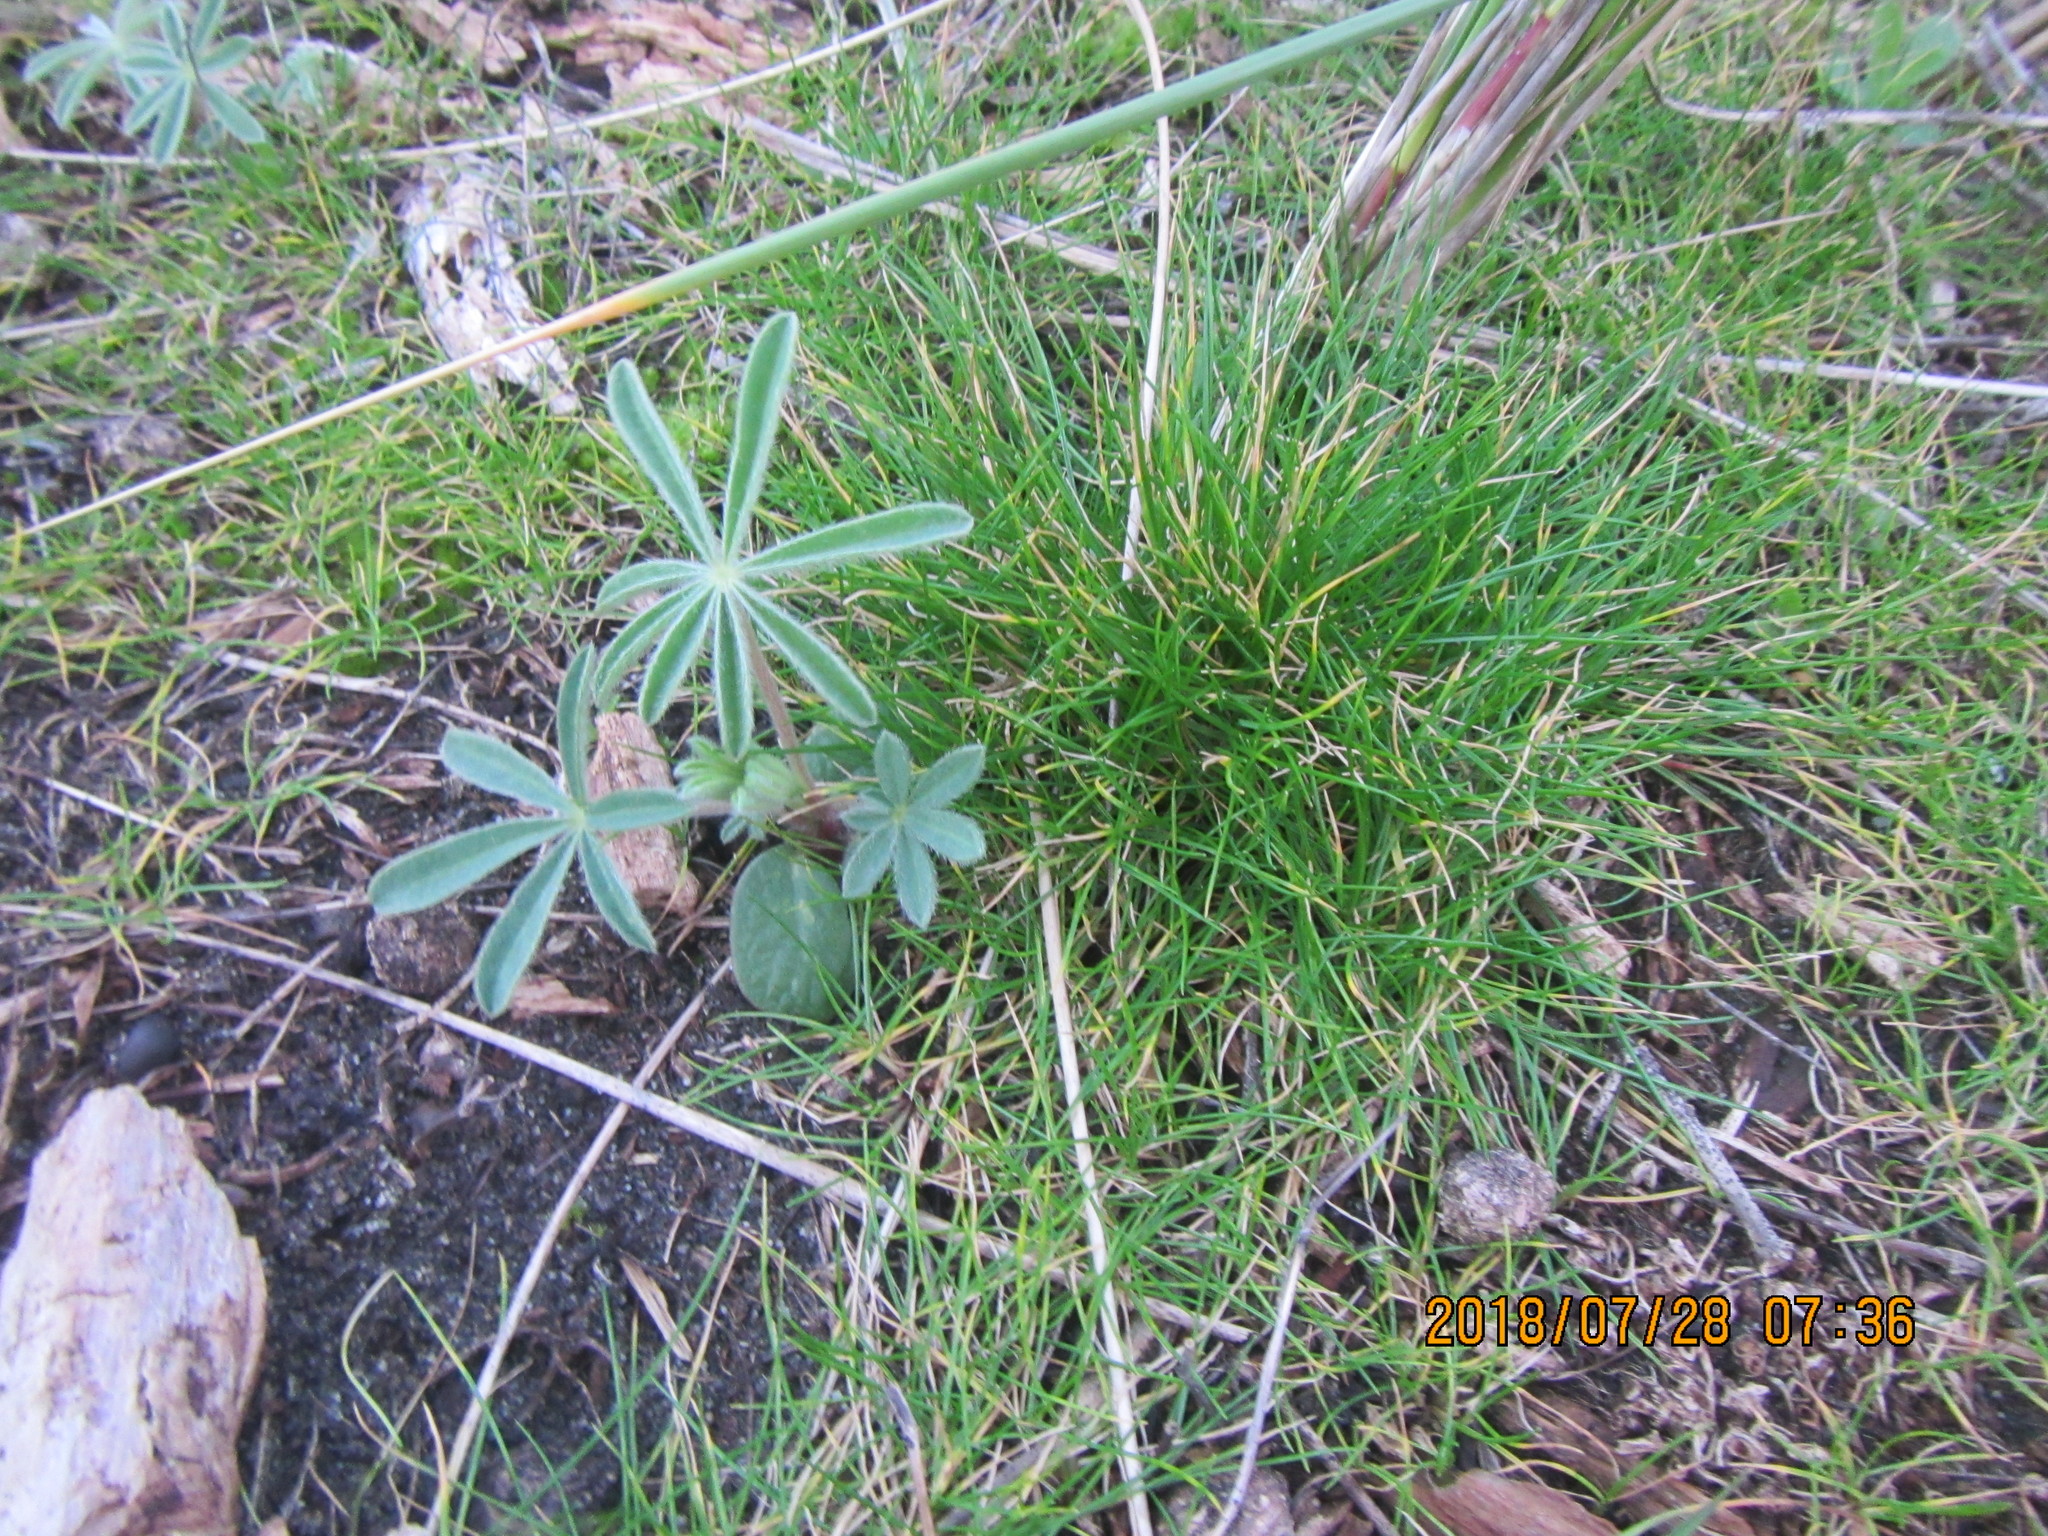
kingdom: Plantae
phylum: Tracheophyta
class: Magnoliopsida
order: Fabales
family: Fabaceae
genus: Lupinus
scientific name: Lupinus arboreus
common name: Yellow bush lupine
